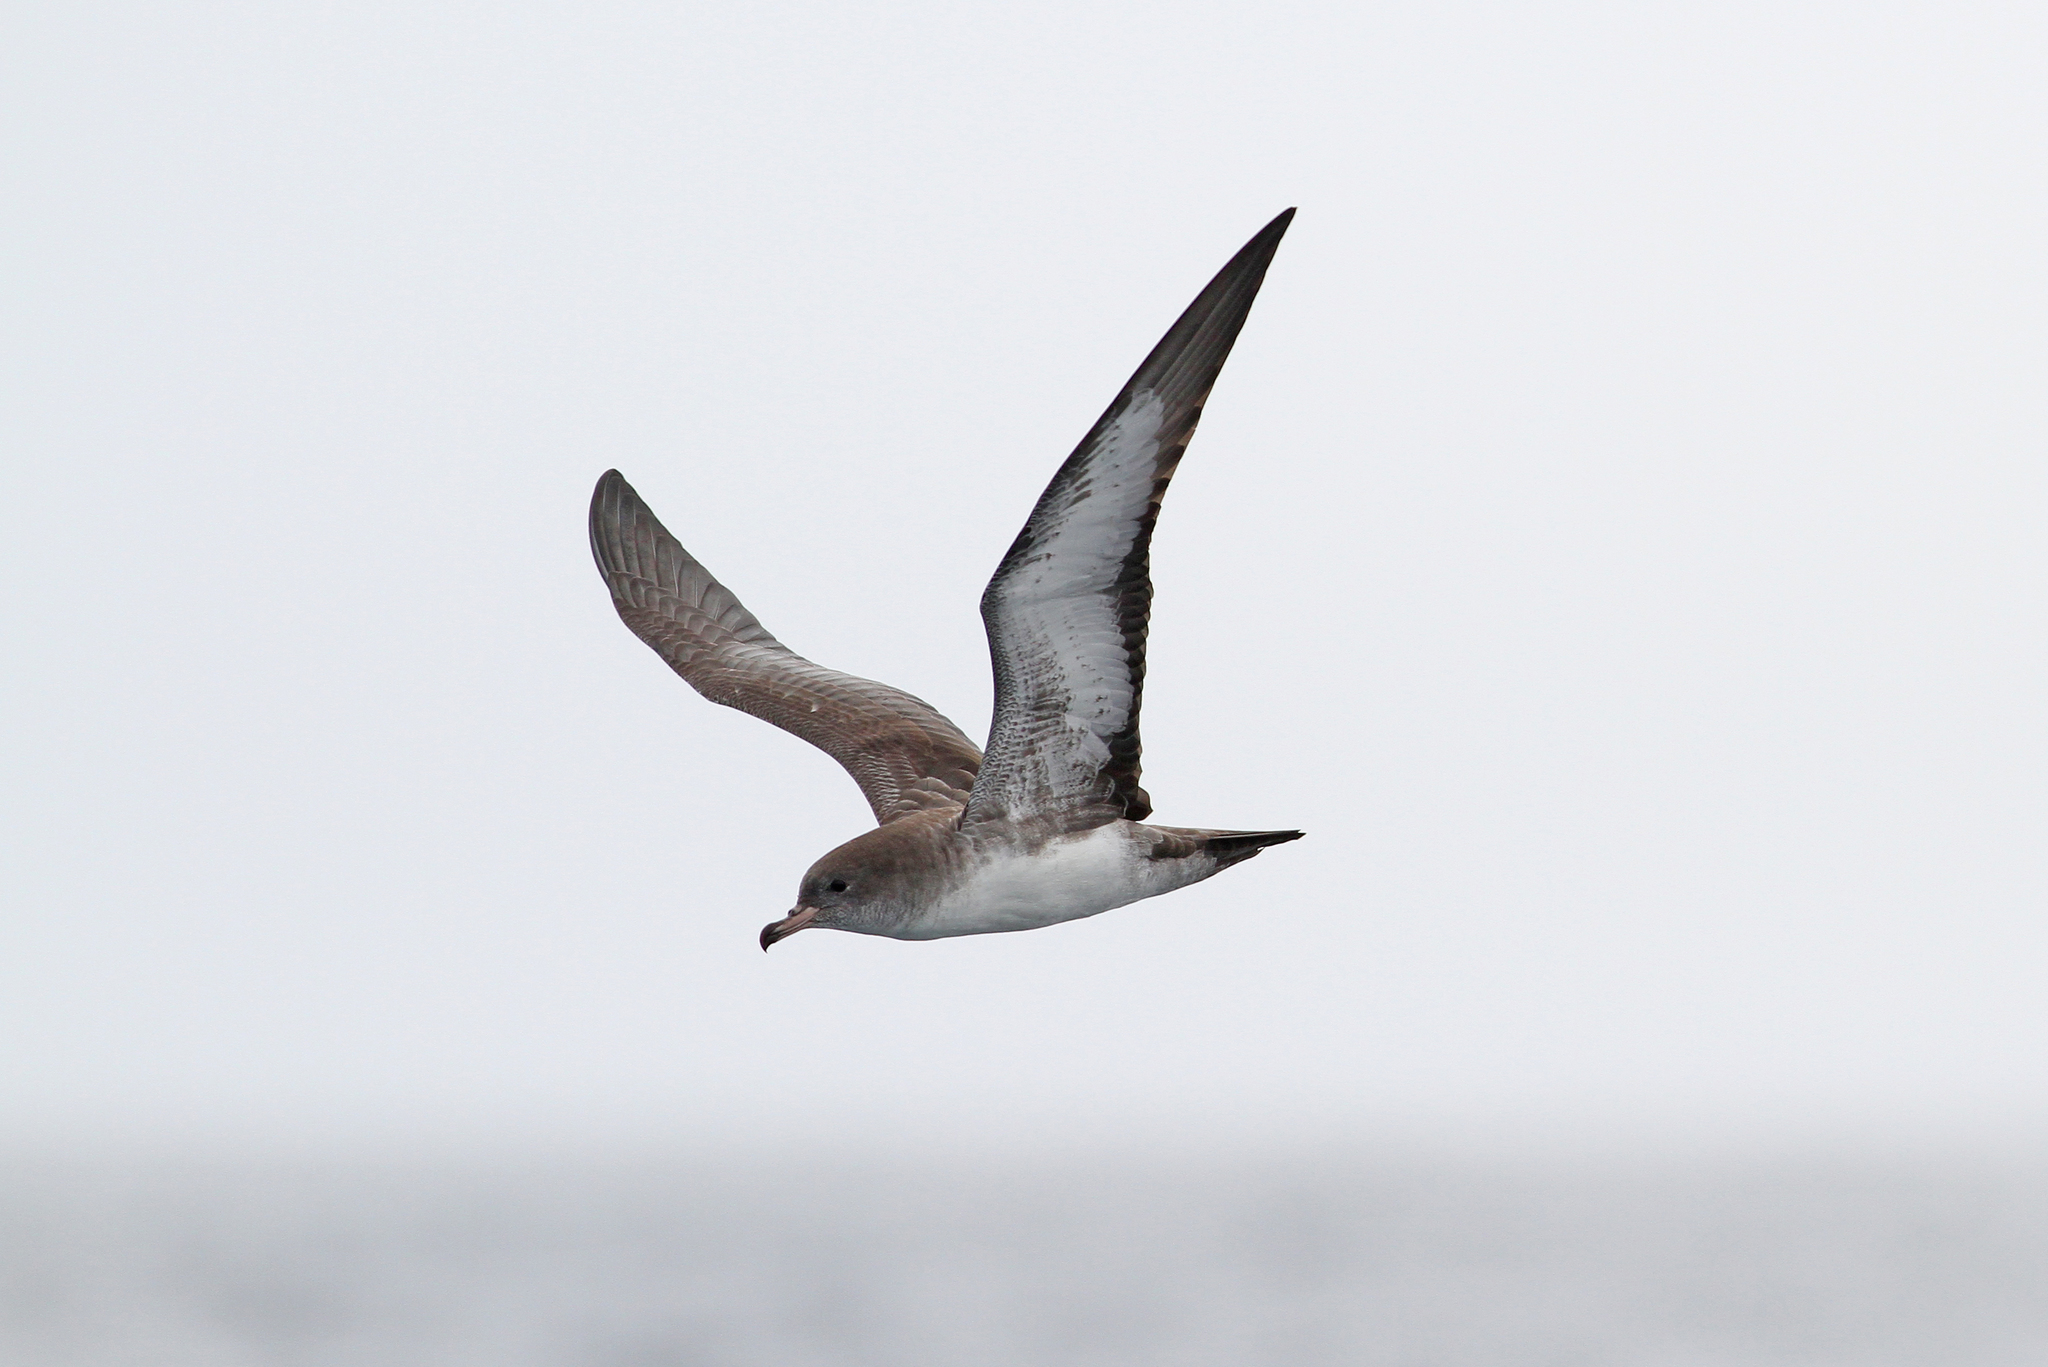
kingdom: Animalia
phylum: Chordata
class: Aves
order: Procellariiformes
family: Procellariidae
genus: Puffinus
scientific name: Puffinus creatopus
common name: Pink-footed shearwater
